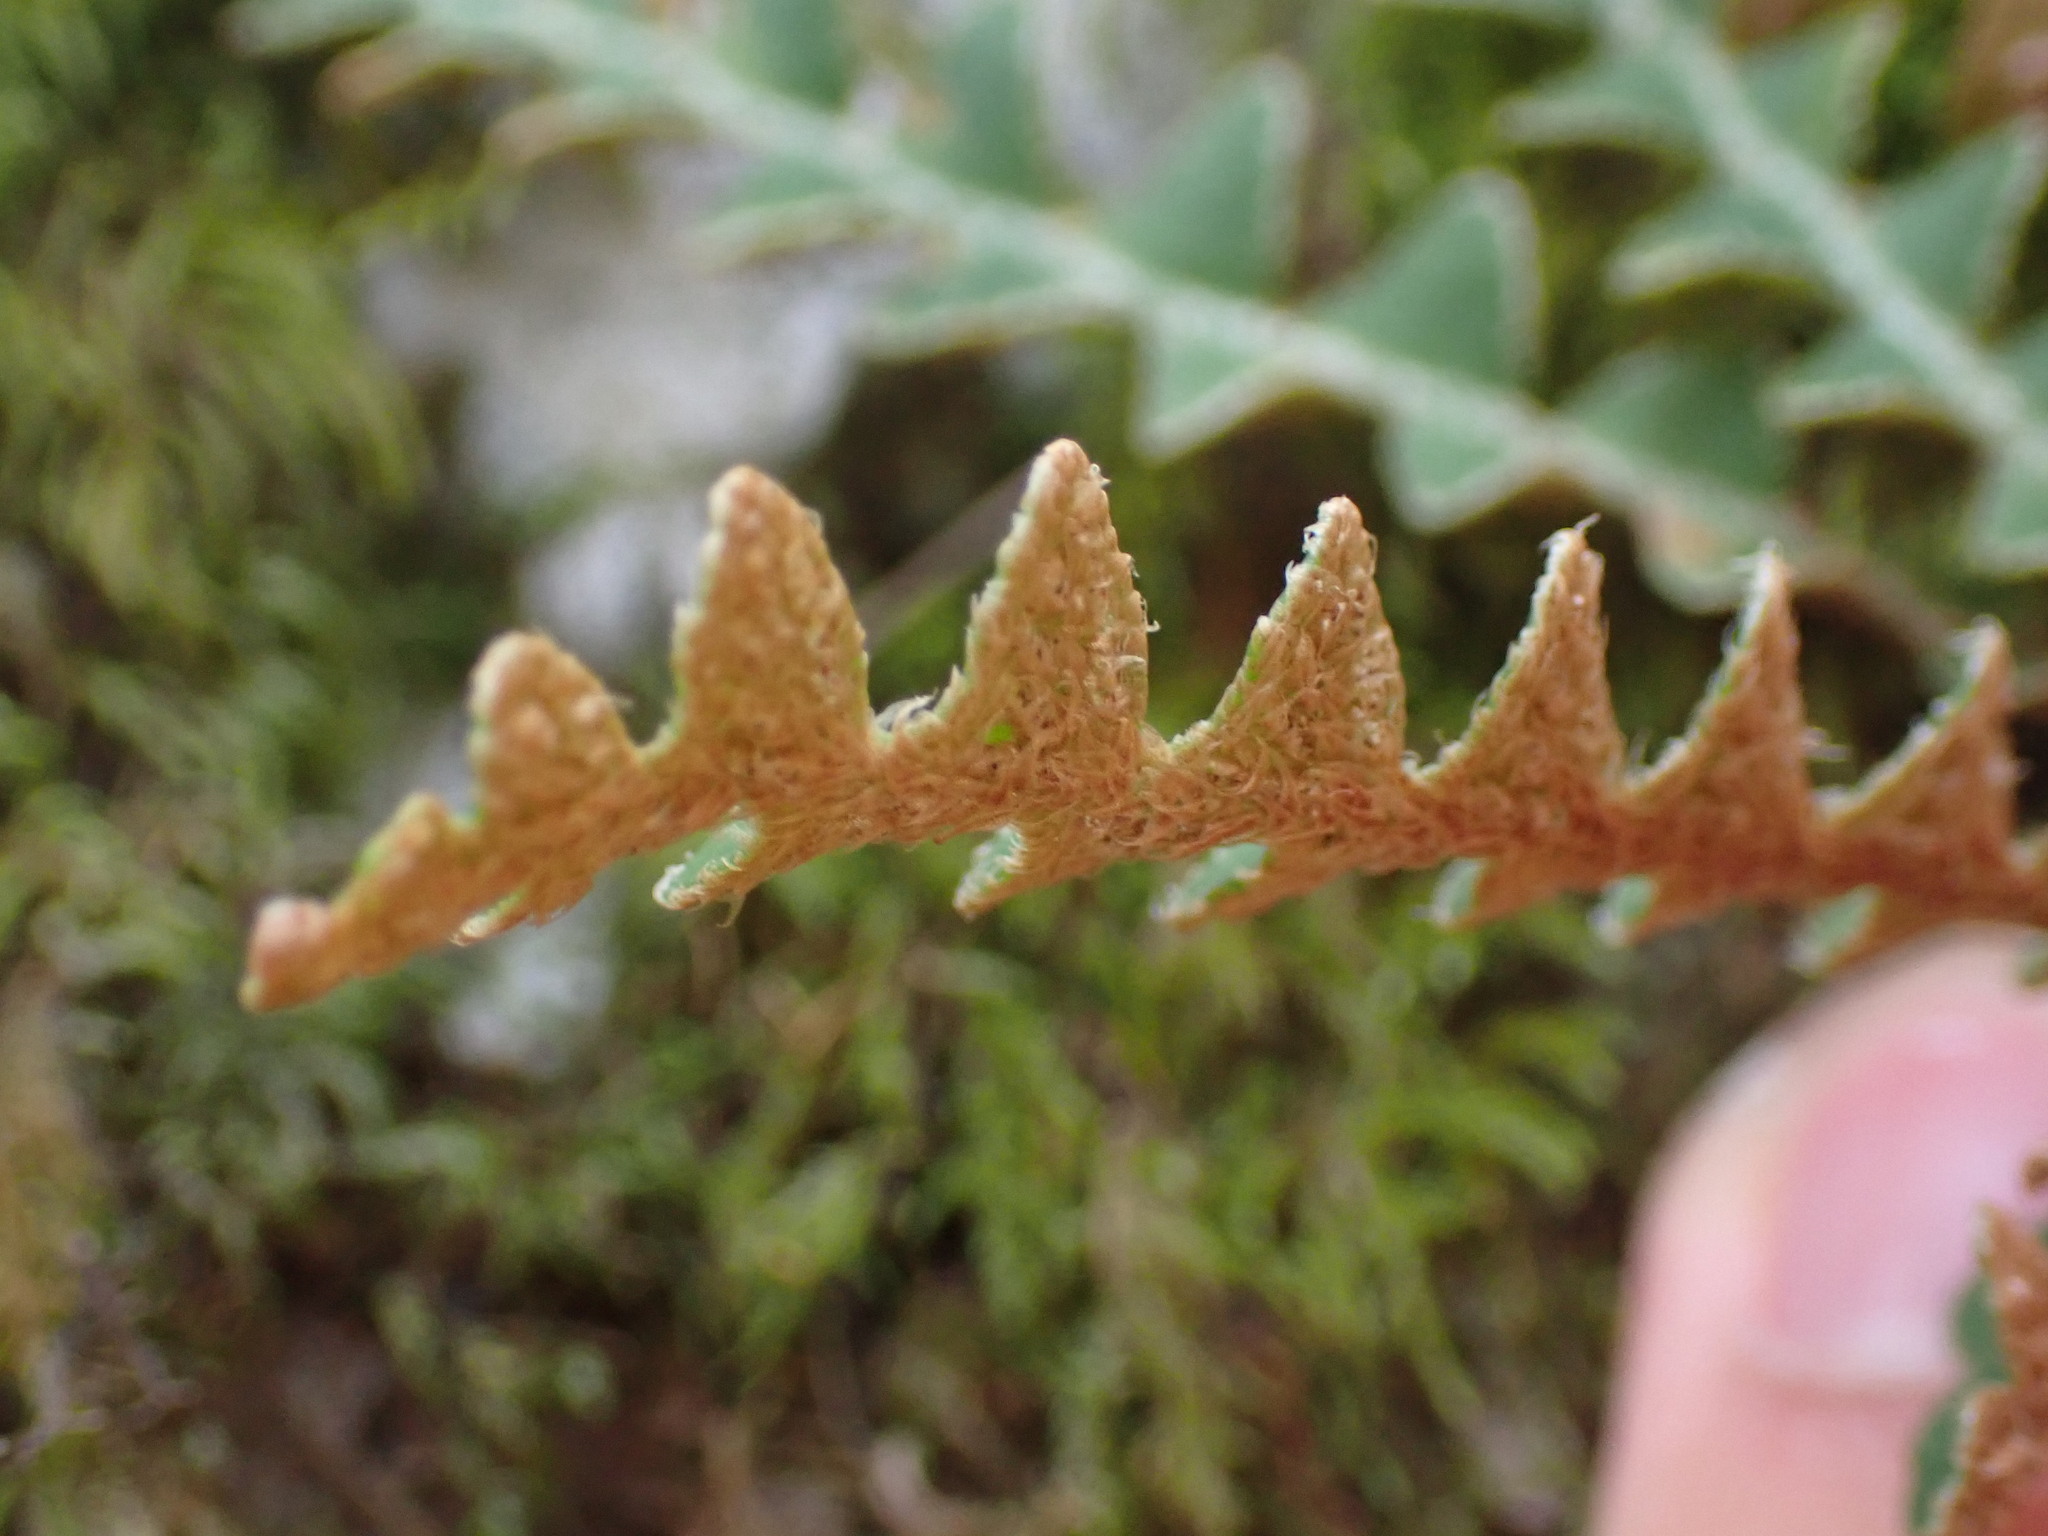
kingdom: Plantae
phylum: Tracheophyta
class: Polypodiopsida
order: Polypodiales
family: Aspleniaceae
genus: Asplenium
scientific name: Asplenium ceterach
